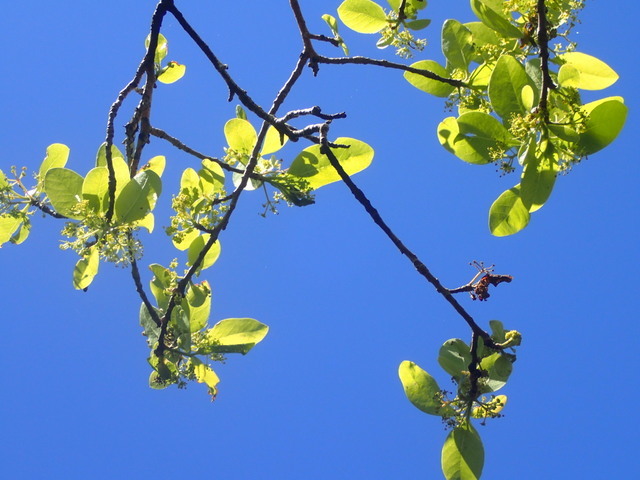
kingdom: Plantae
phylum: Tracheophyta
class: Magnoliopsida
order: Cornales
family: Nyssaceae
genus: Nyssa
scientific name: Nyssa biflora
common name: Swamp blackgum
